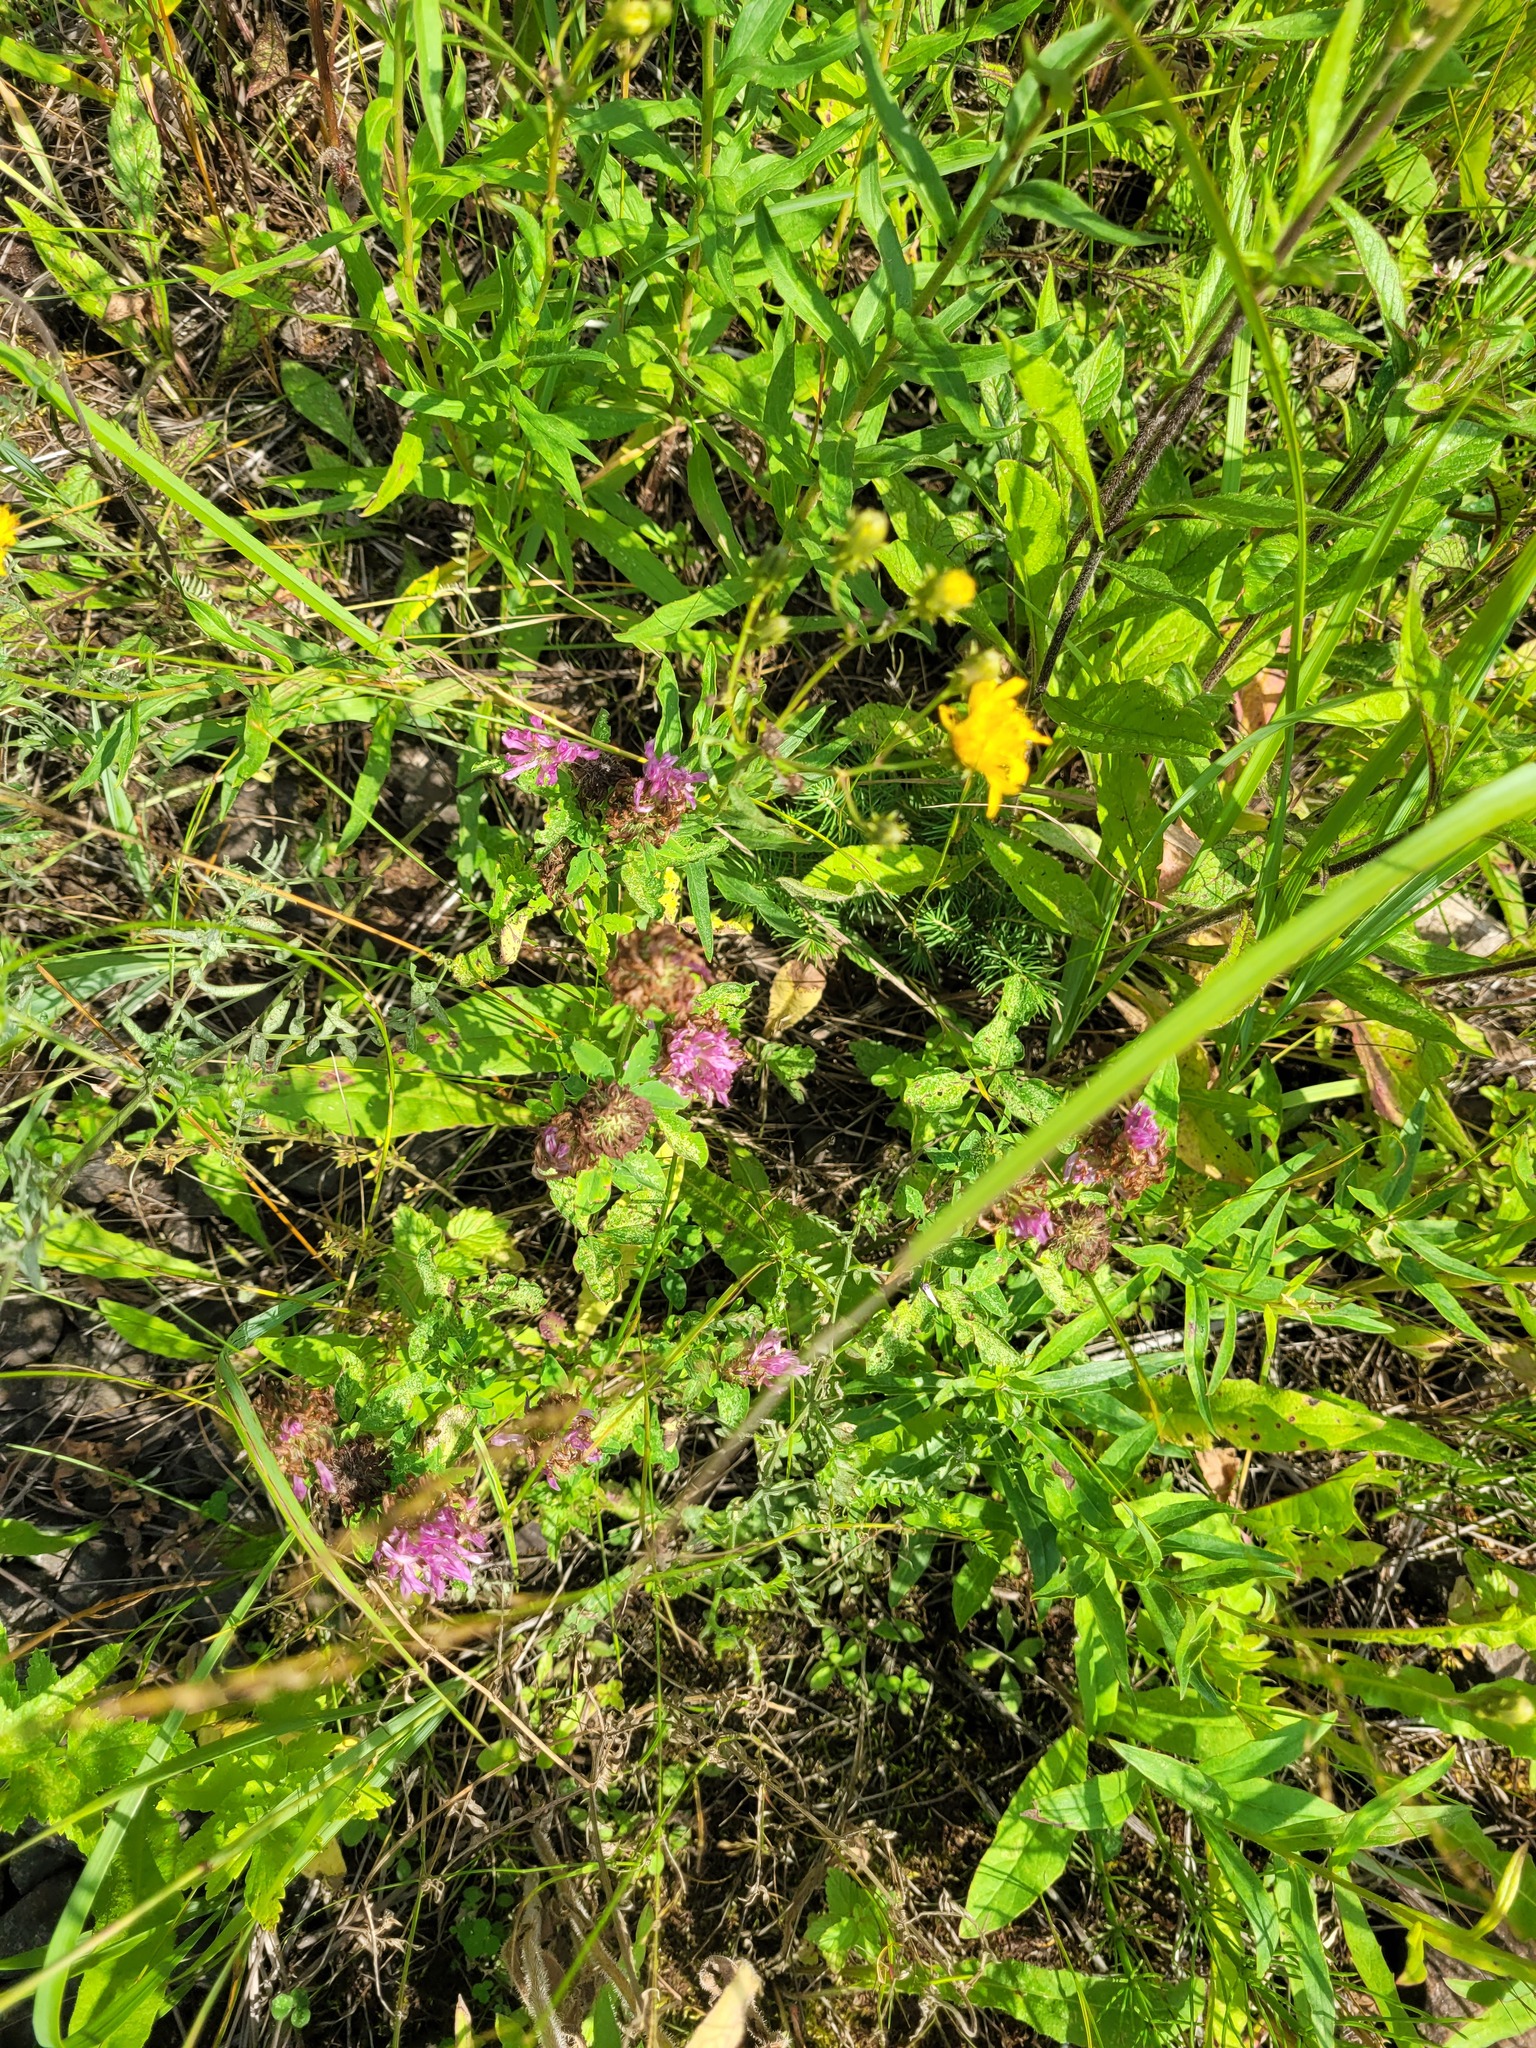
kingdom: Plantae
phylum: Tracheophyta
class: Magnoliopsida
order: Fabales
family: Fabaceae
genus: Trifolium
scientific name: Trifolium pratense
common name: Red clover
